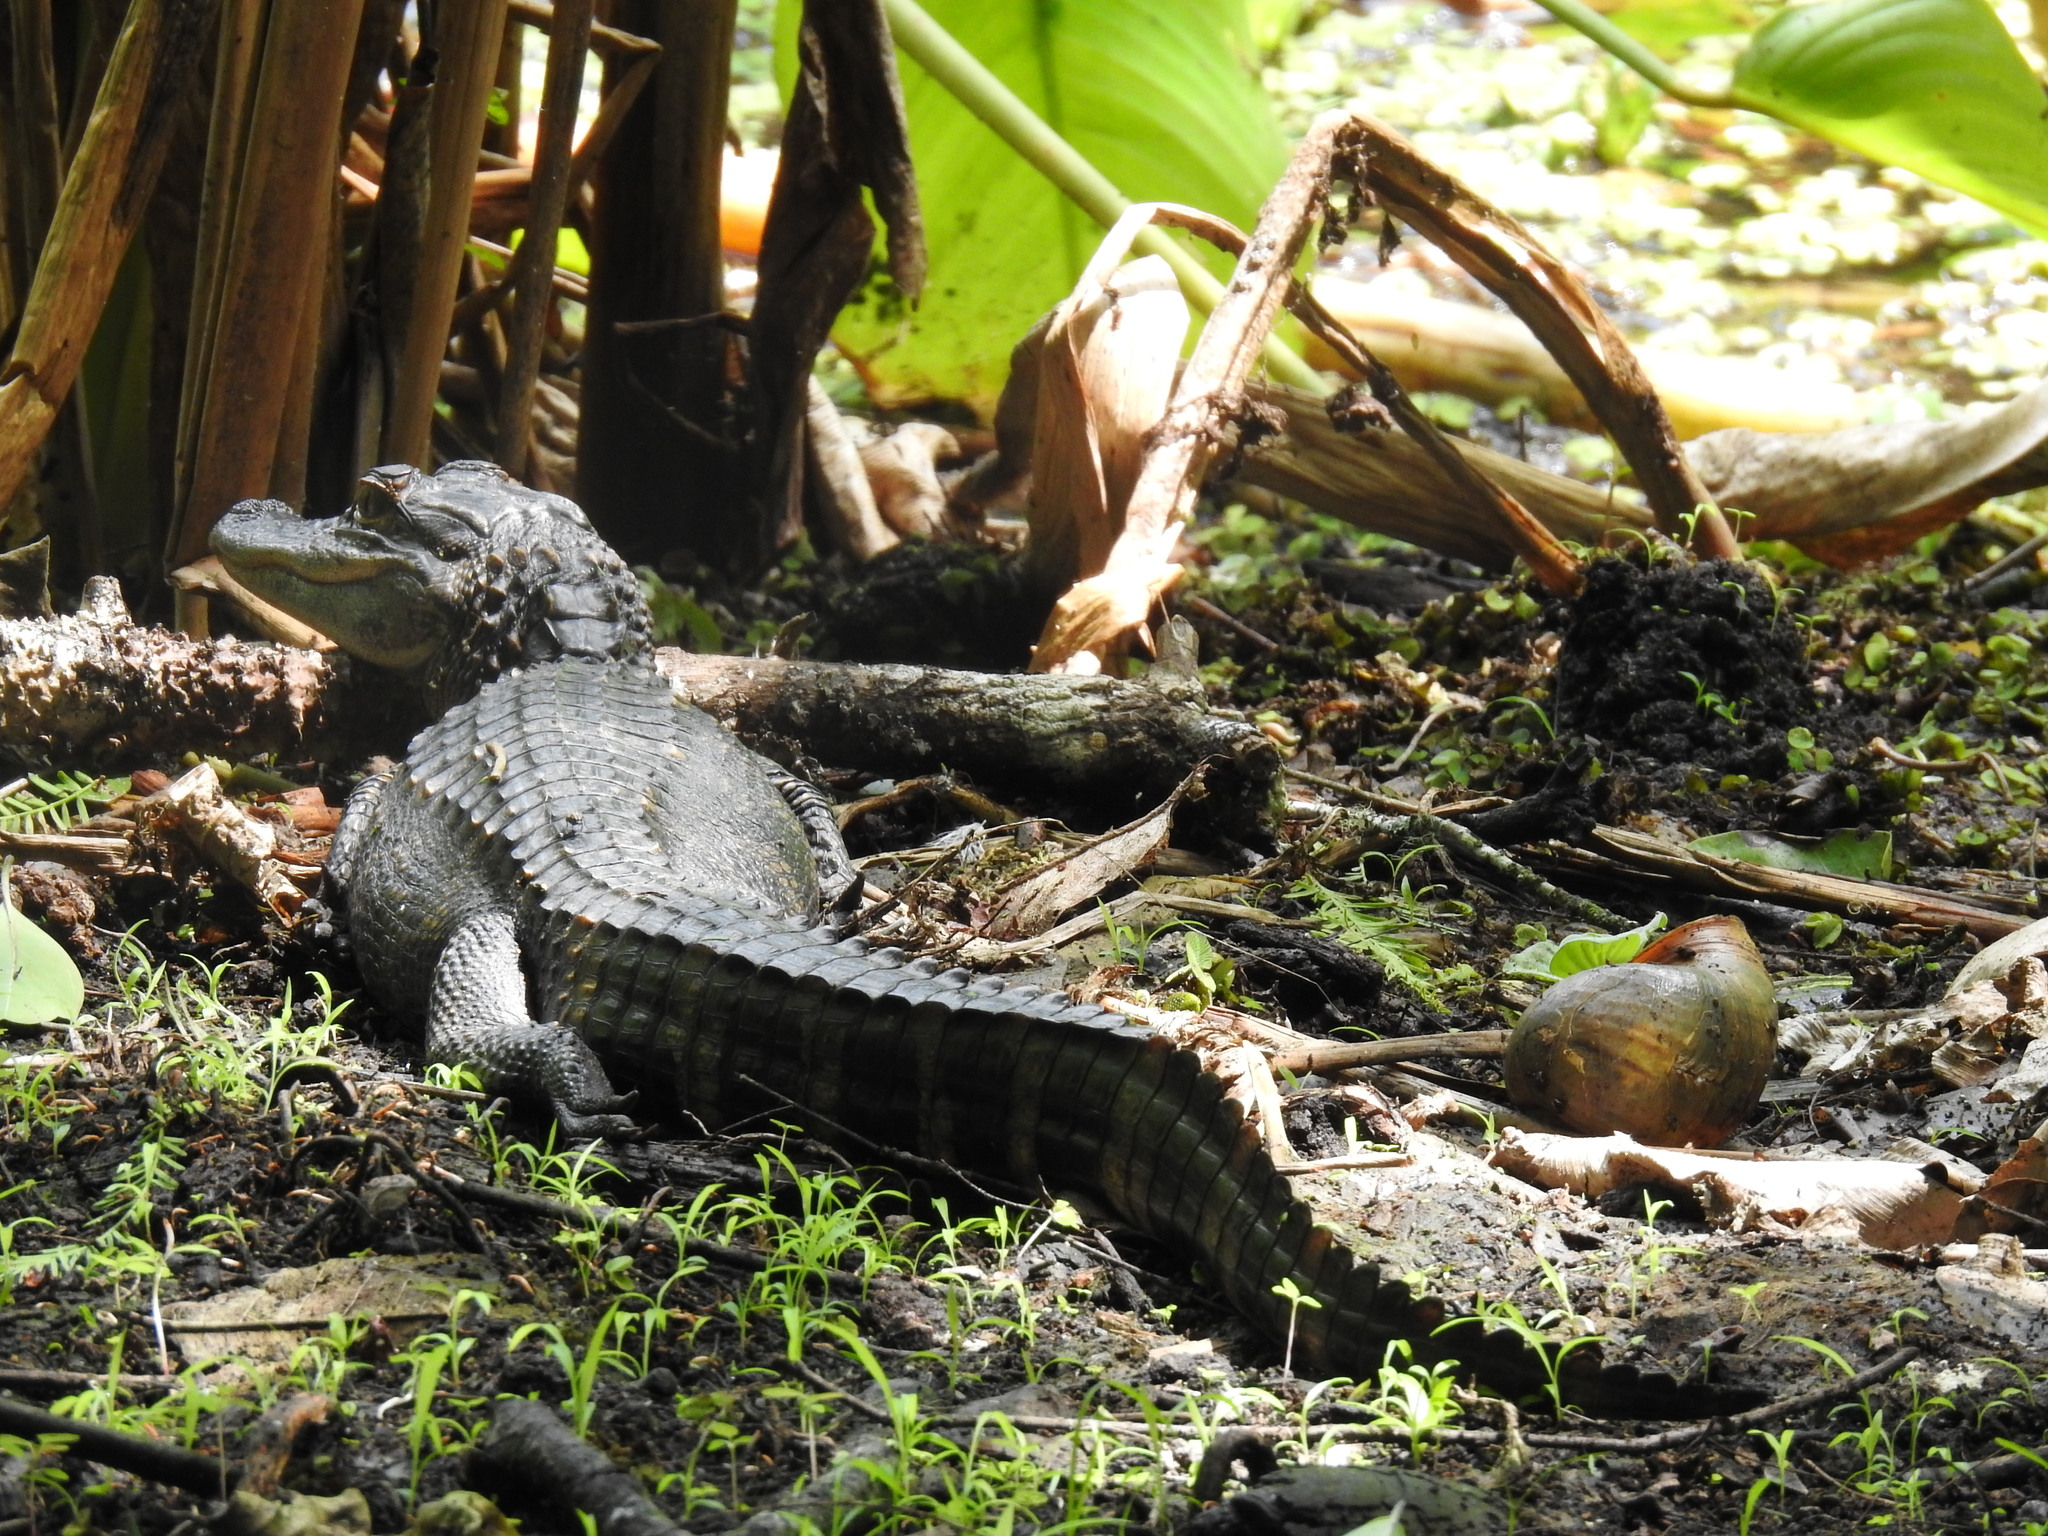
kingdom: Animalia
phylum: Chordata
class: Crocodylia
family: Alligatoridae
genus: Alligator
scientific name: Alligator mississippiensis
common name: American alligator
